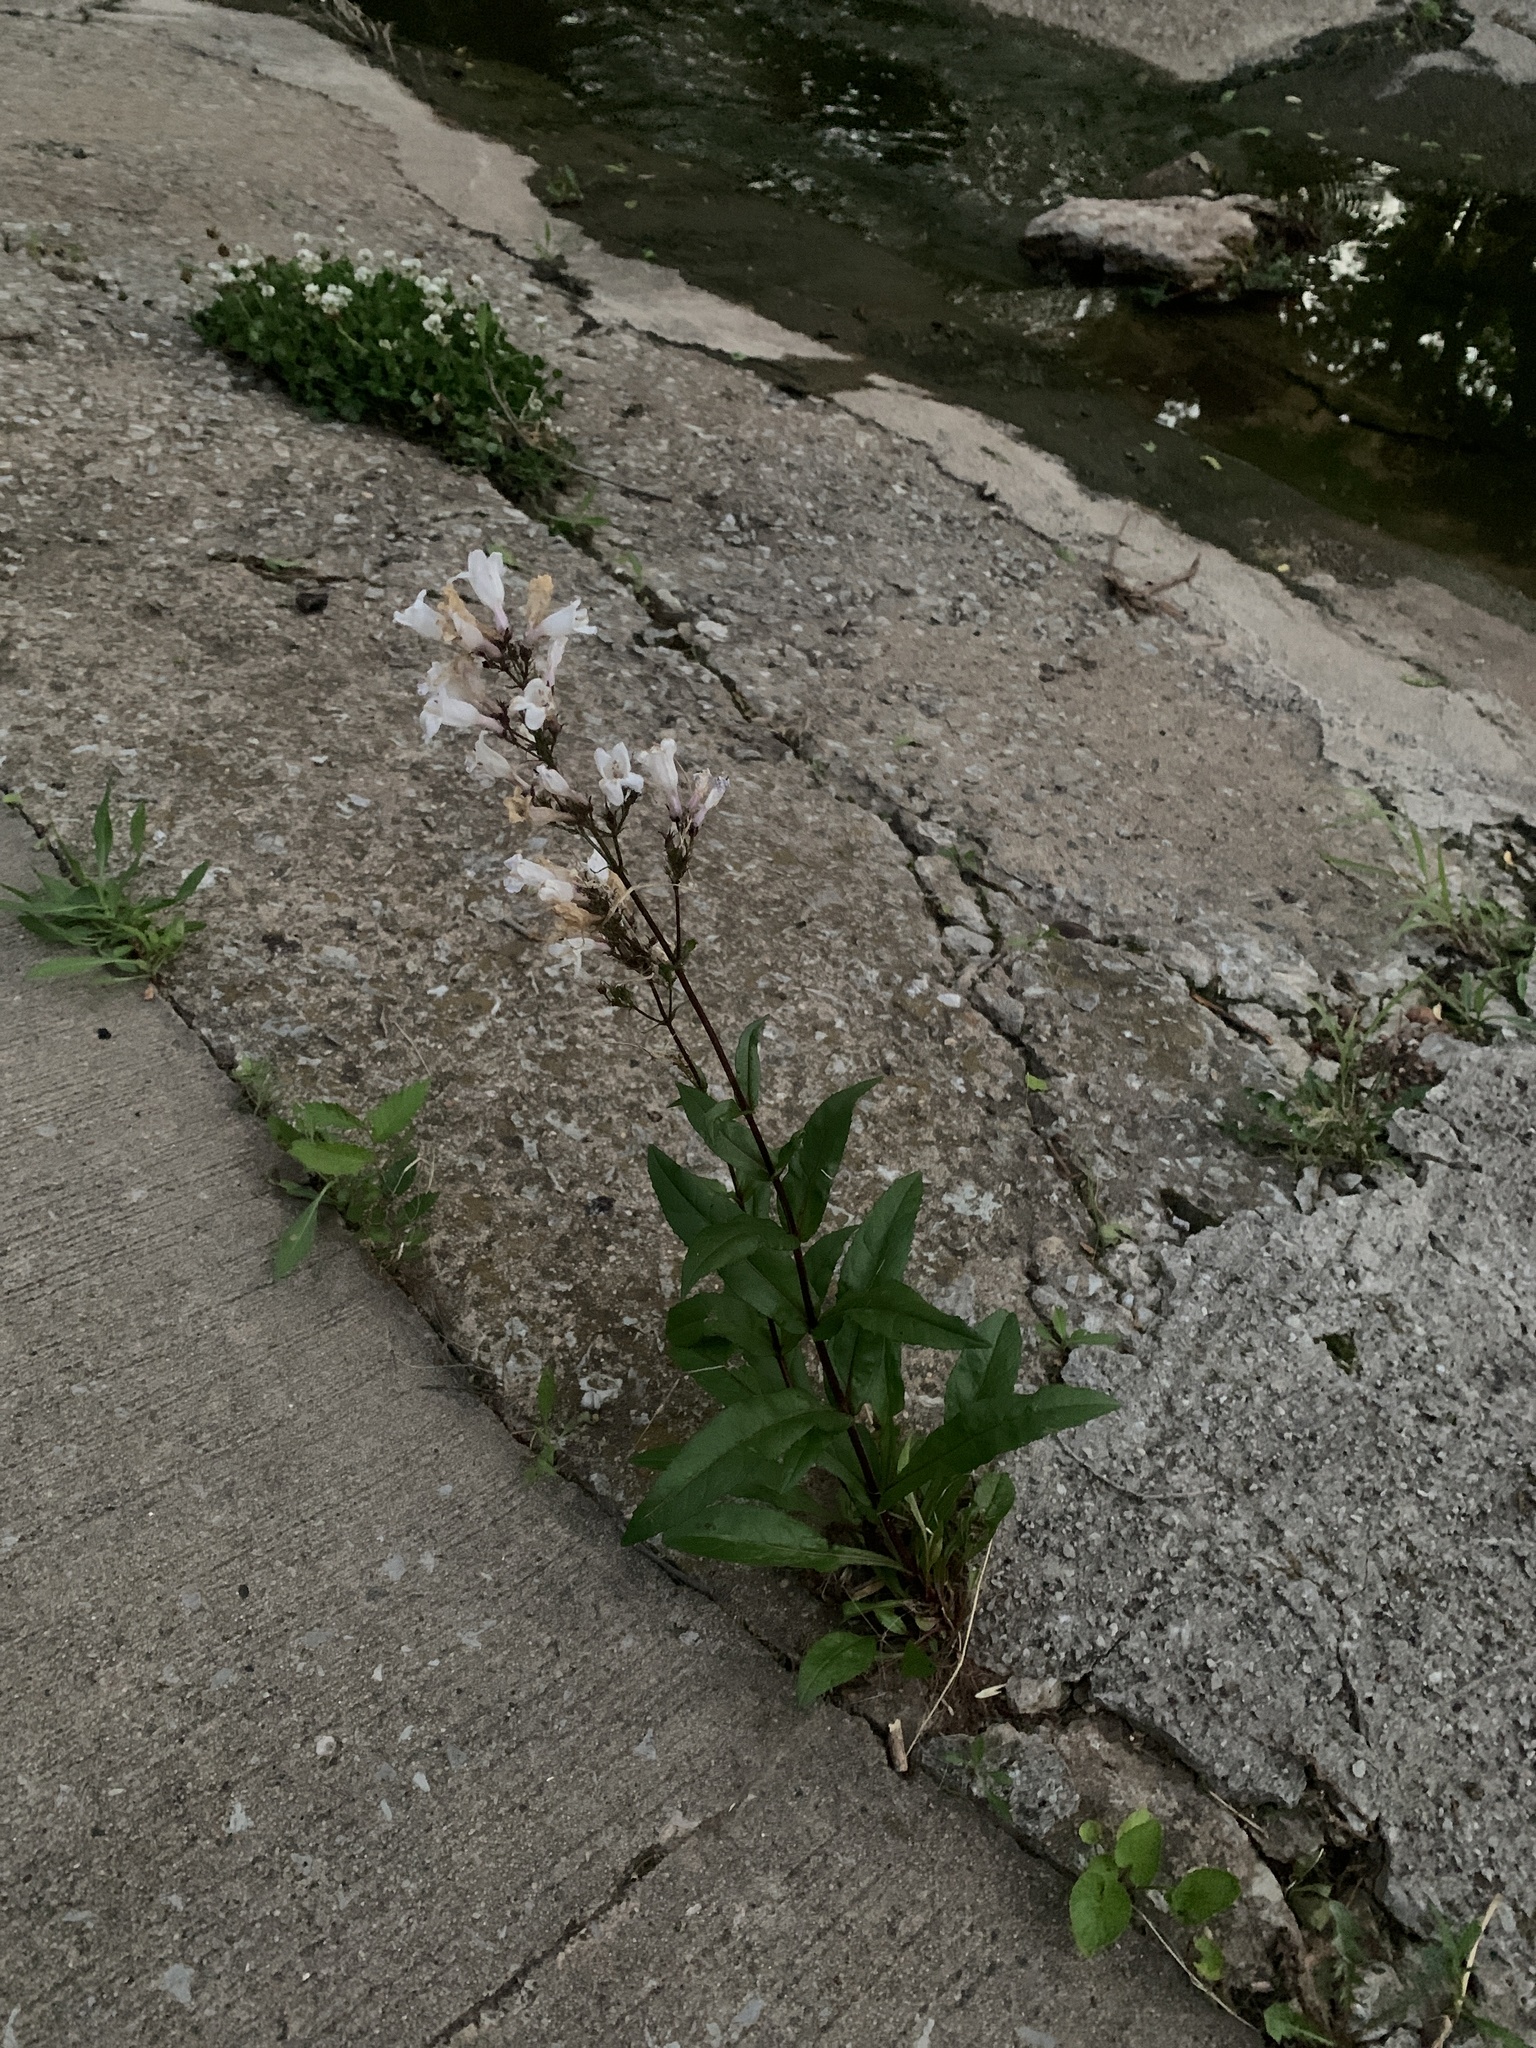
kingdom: Plantae
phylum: Tracheophyta
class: Magnoliopsida
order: Lamiales
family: Plantaginaceae
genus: Penstemon
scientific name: Penstemon digitalis
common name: Foxglove beardtongue
